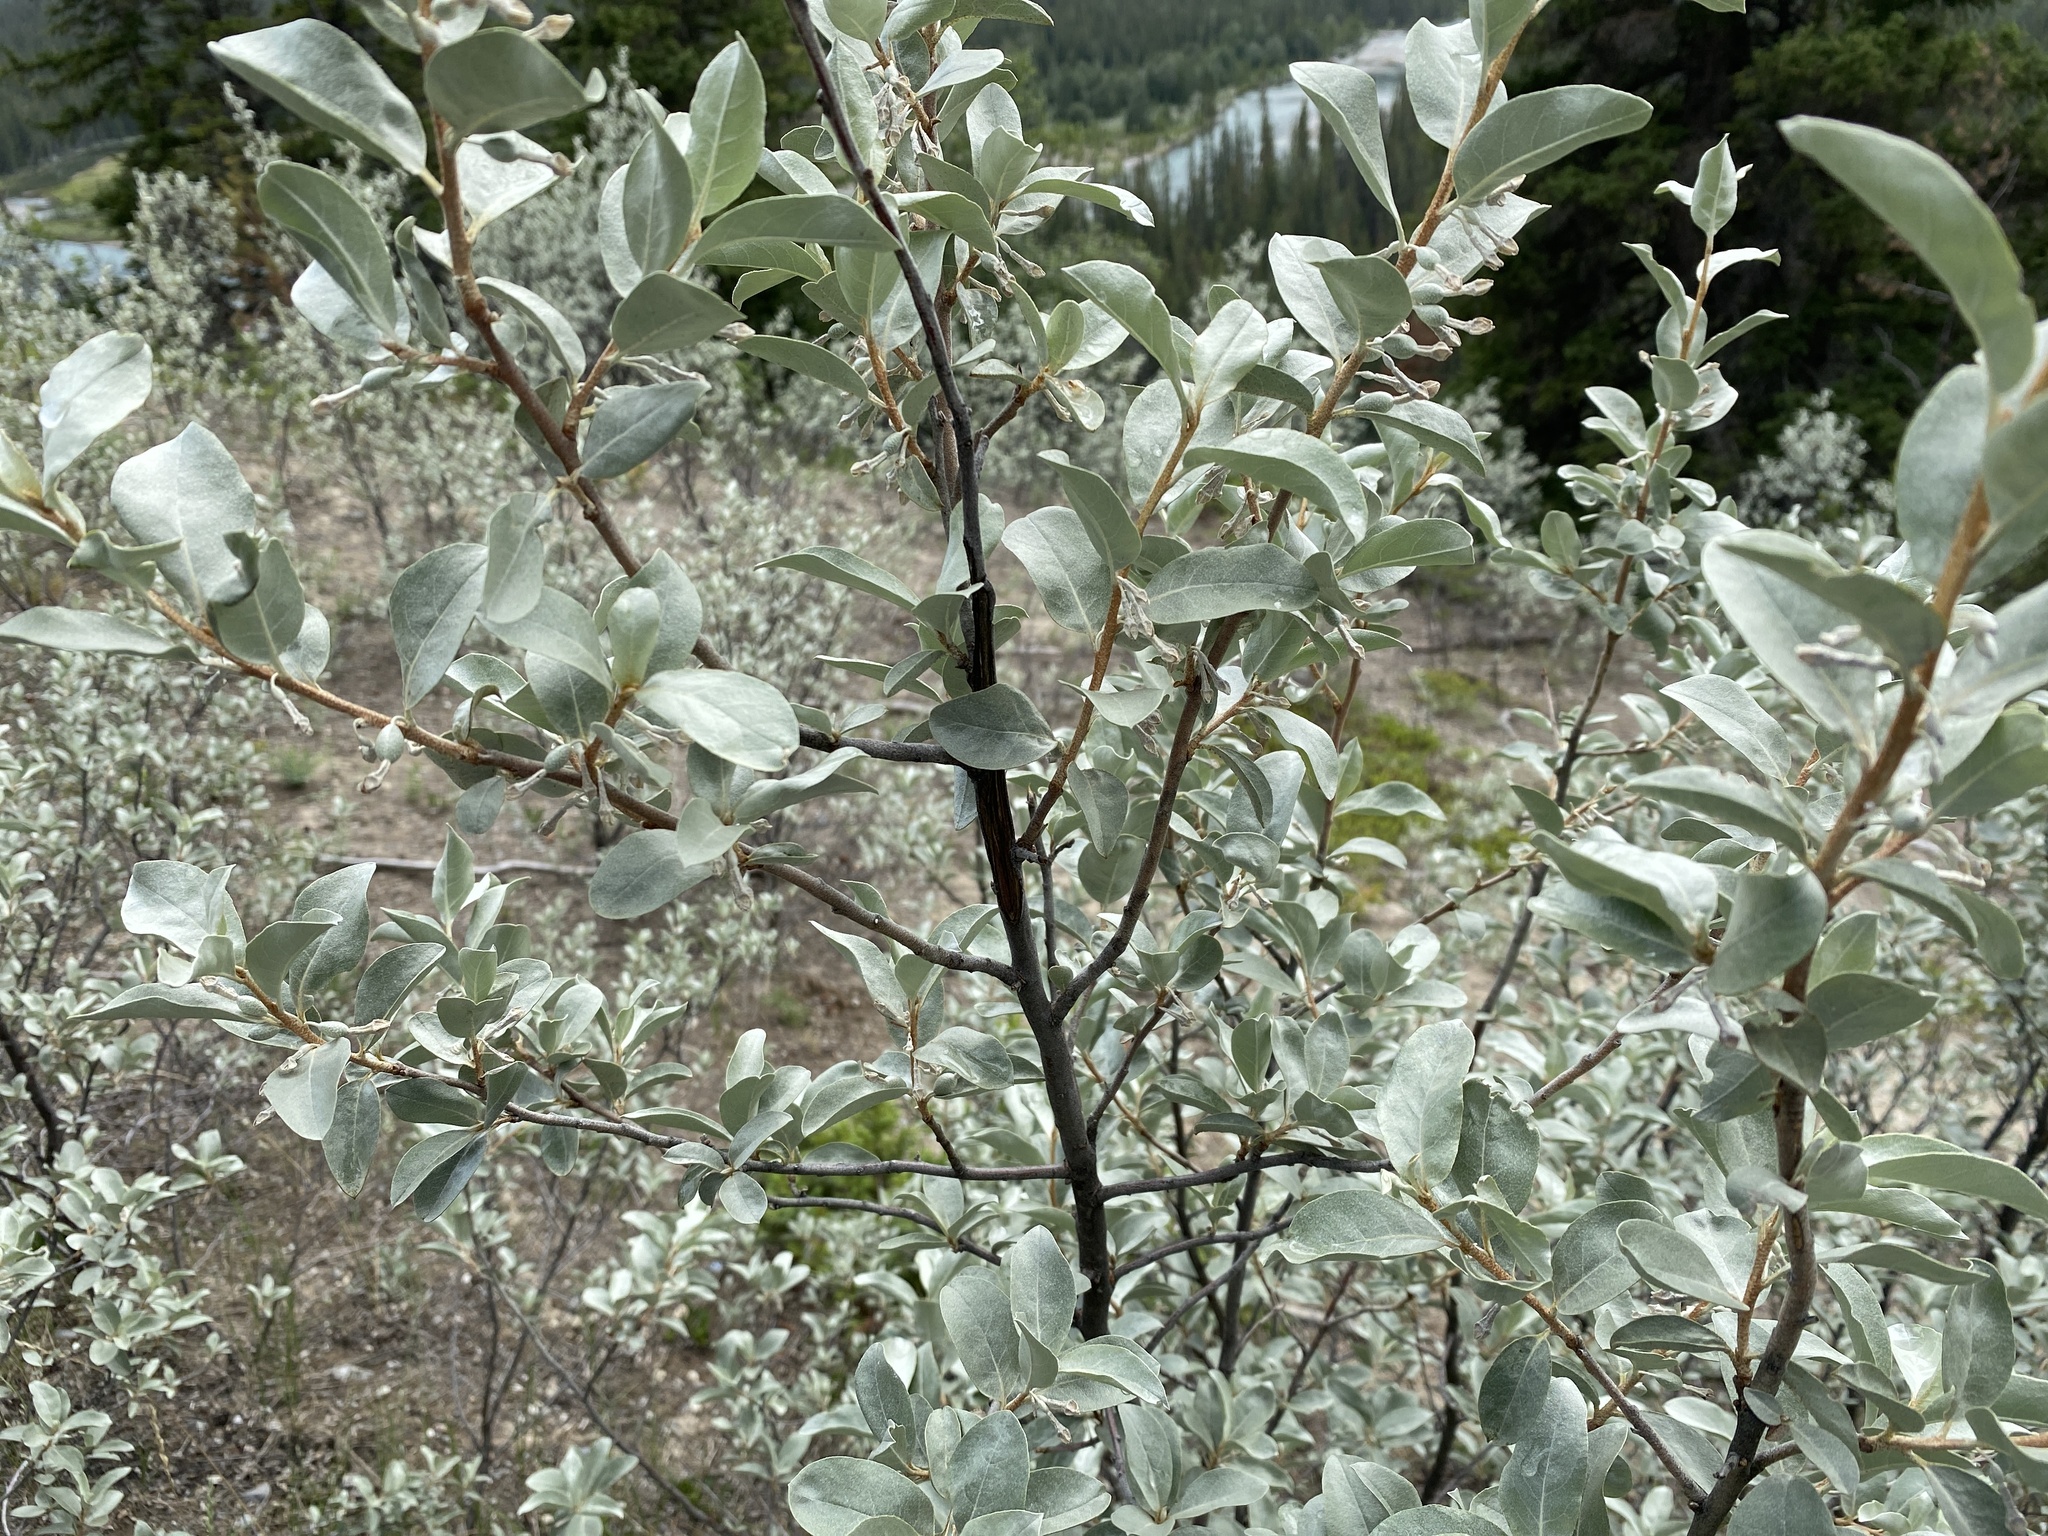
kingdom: Plantae
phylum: Tracheophyta
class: Magnoliopsida
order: Rosales
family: Elaeagnaceae
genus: Elaeagnus
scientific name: Elaeagnus commutata
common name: Silverberry
